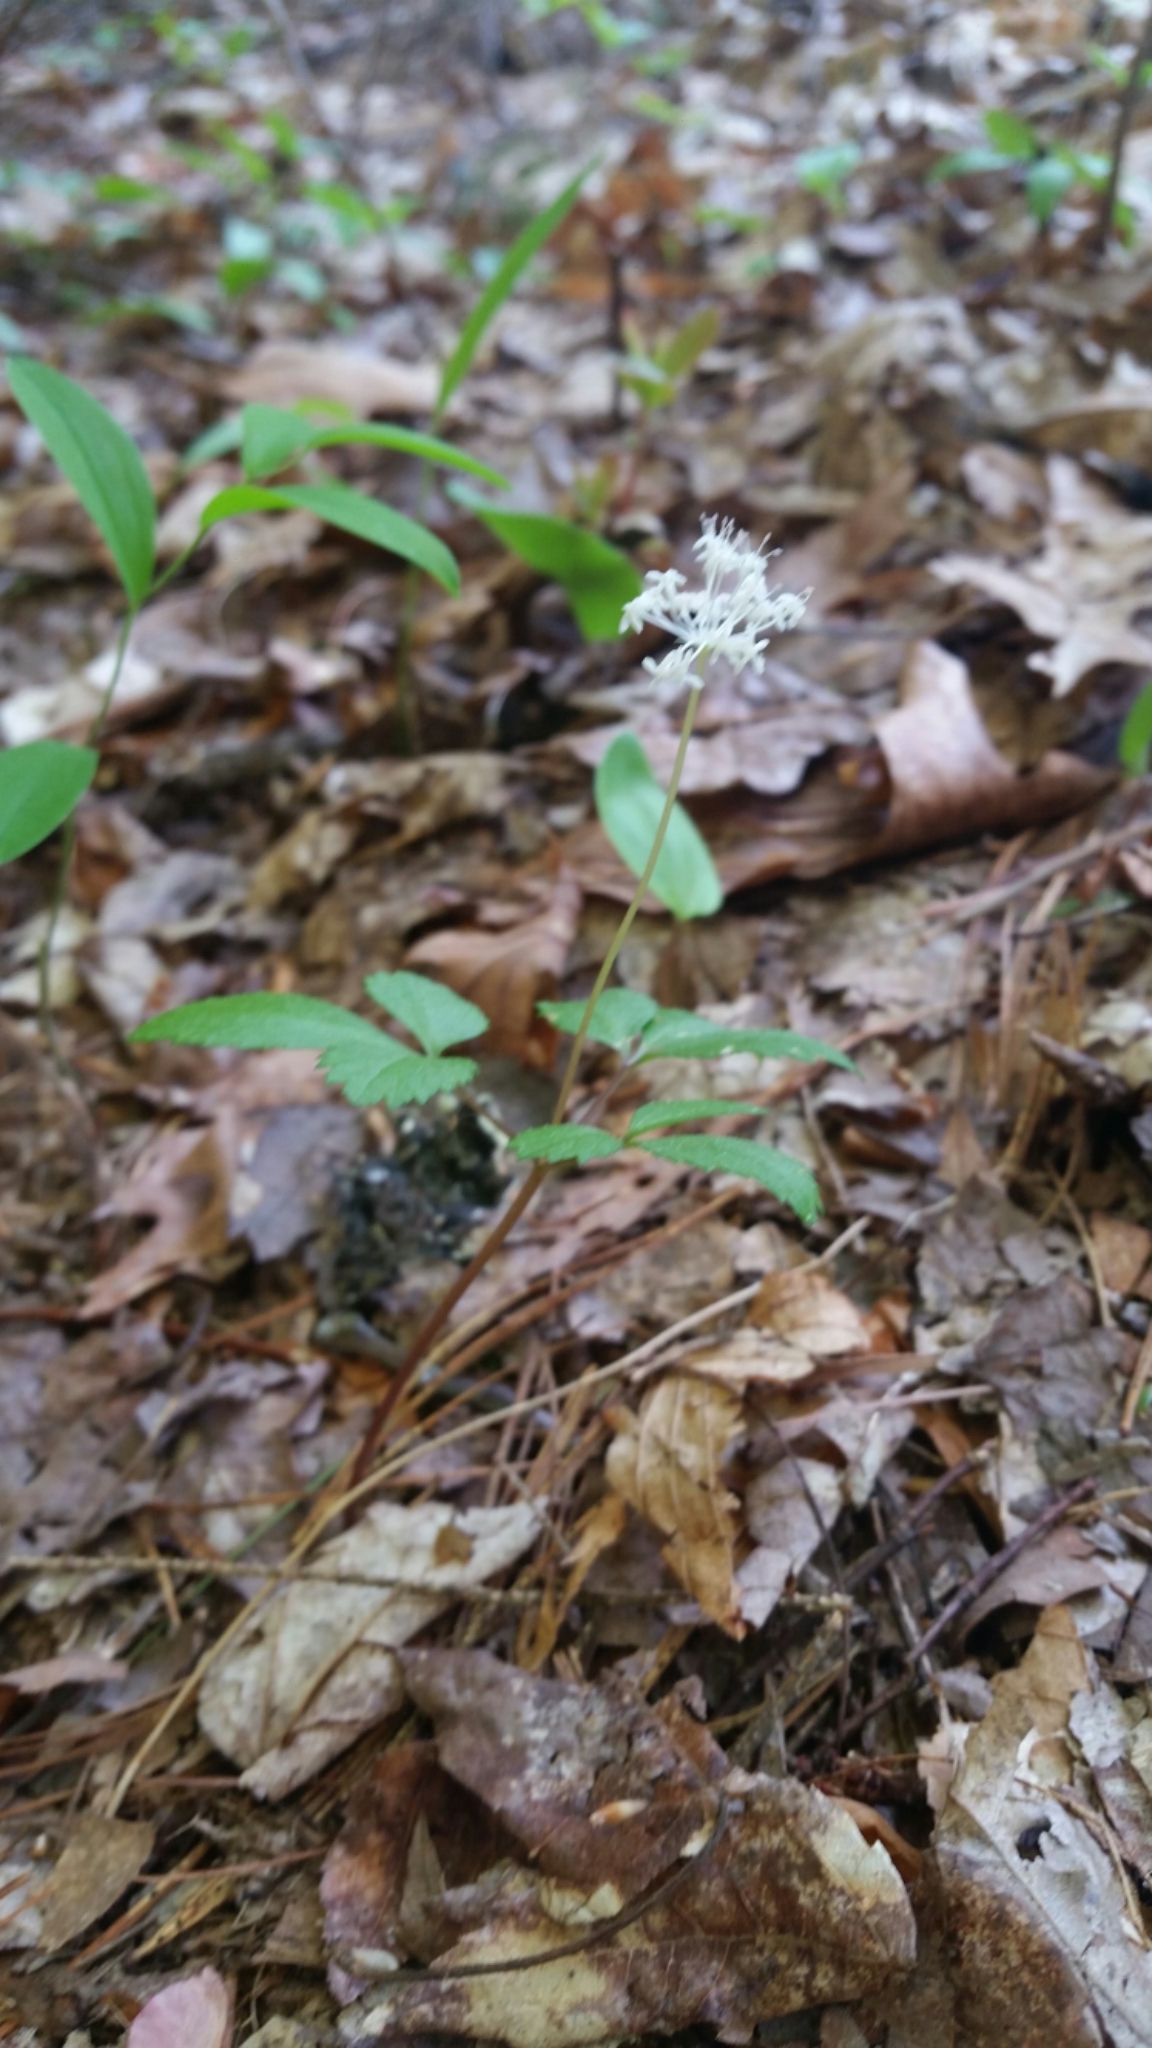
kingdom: Plantae
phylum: Tracheophyta
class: Magnoliopsida
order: Apiales
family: Araliaceae
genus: Panax
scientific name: Panax trifolius
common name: Dwarf ginseng
